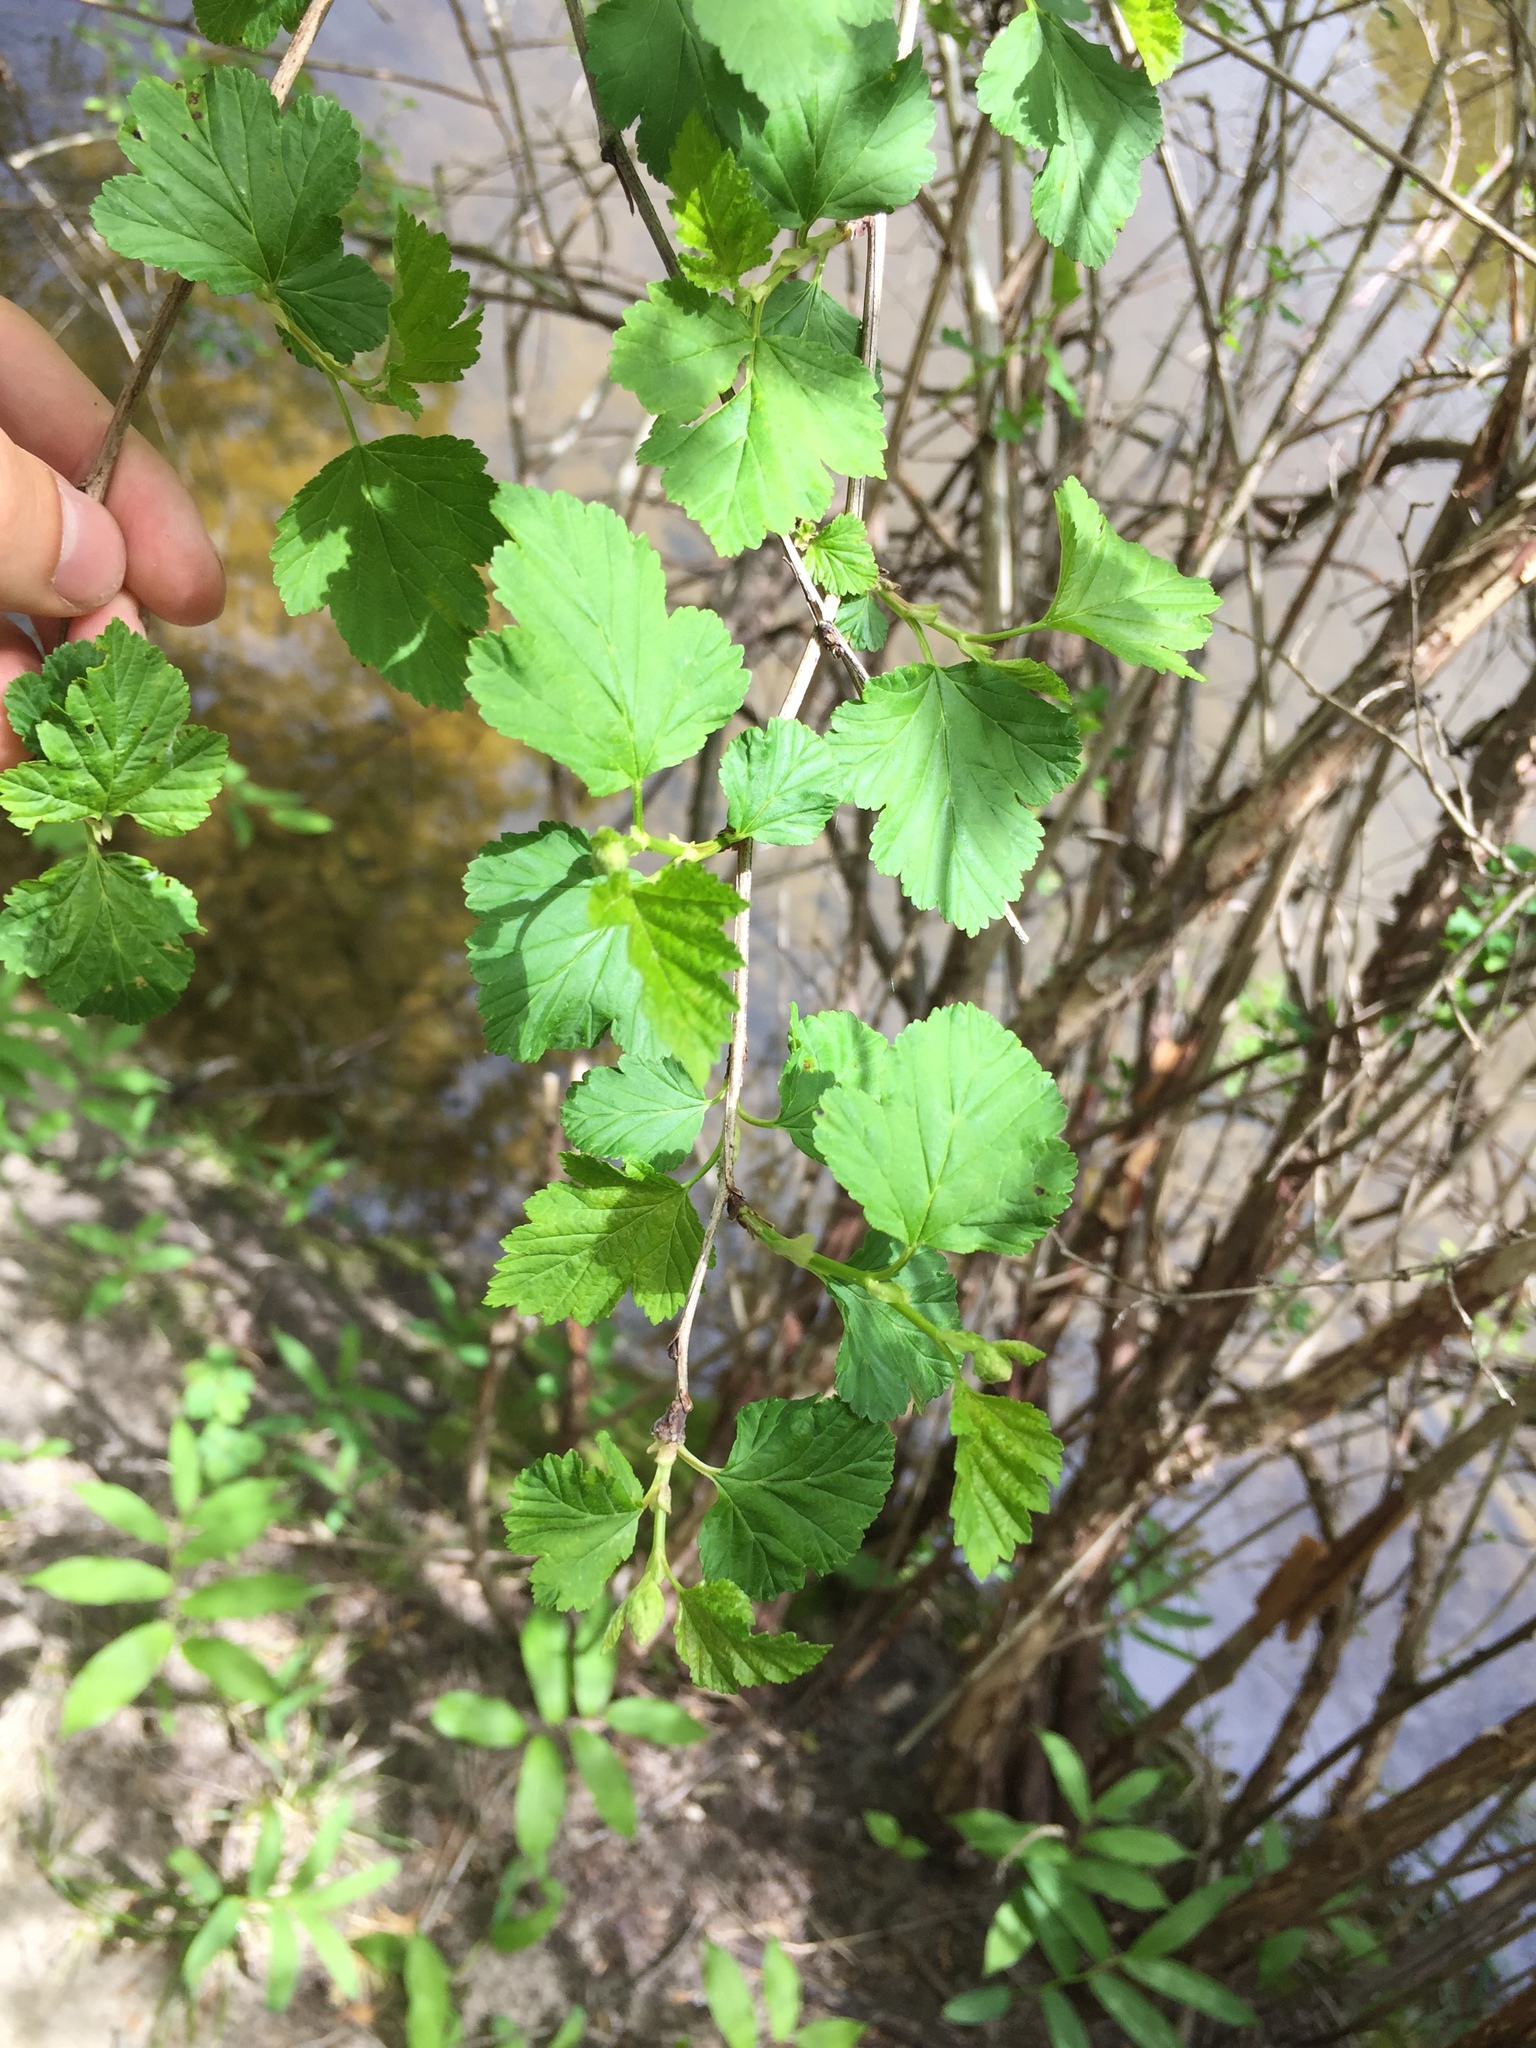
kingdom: Plantae
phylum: Tracheophyta
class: Magnoliopsida
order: Rosales
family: Rosaceae
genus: Physocarpus
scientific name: Physocarpus opulifolius
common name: Ninebark
